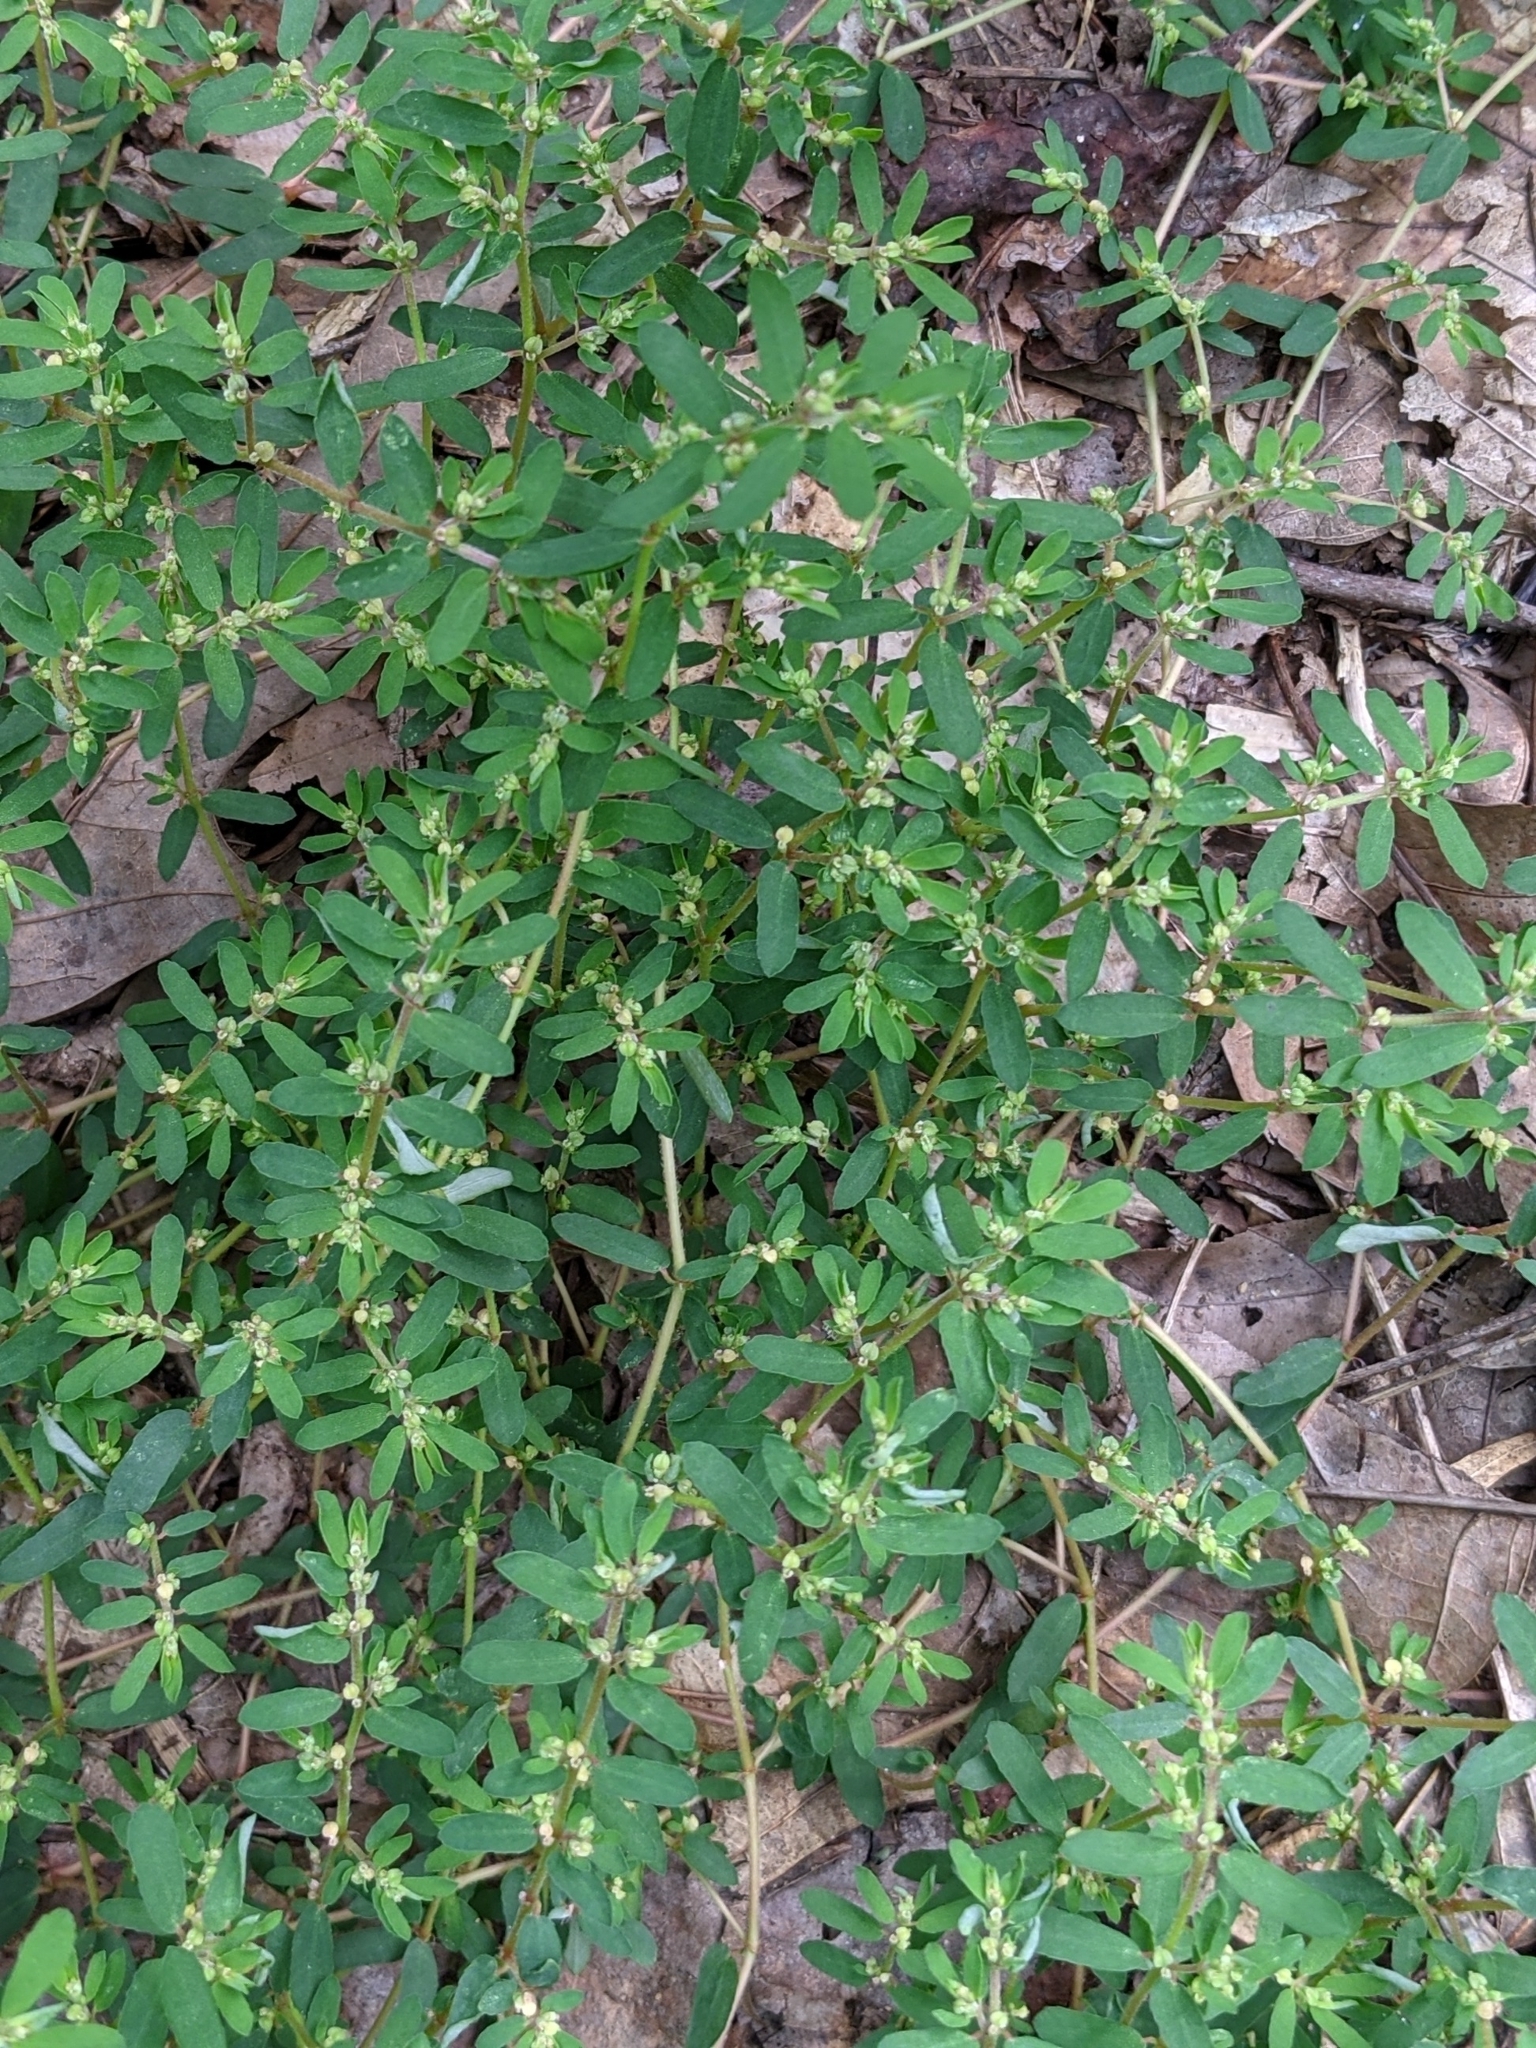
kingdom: Plantae
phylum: Tracheophyta
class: Magnoliopsida
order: Malpighiales
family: Euphorbiaceae
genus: Euphorbia
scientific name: Euphorbia maculata
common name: Spotted spurge
